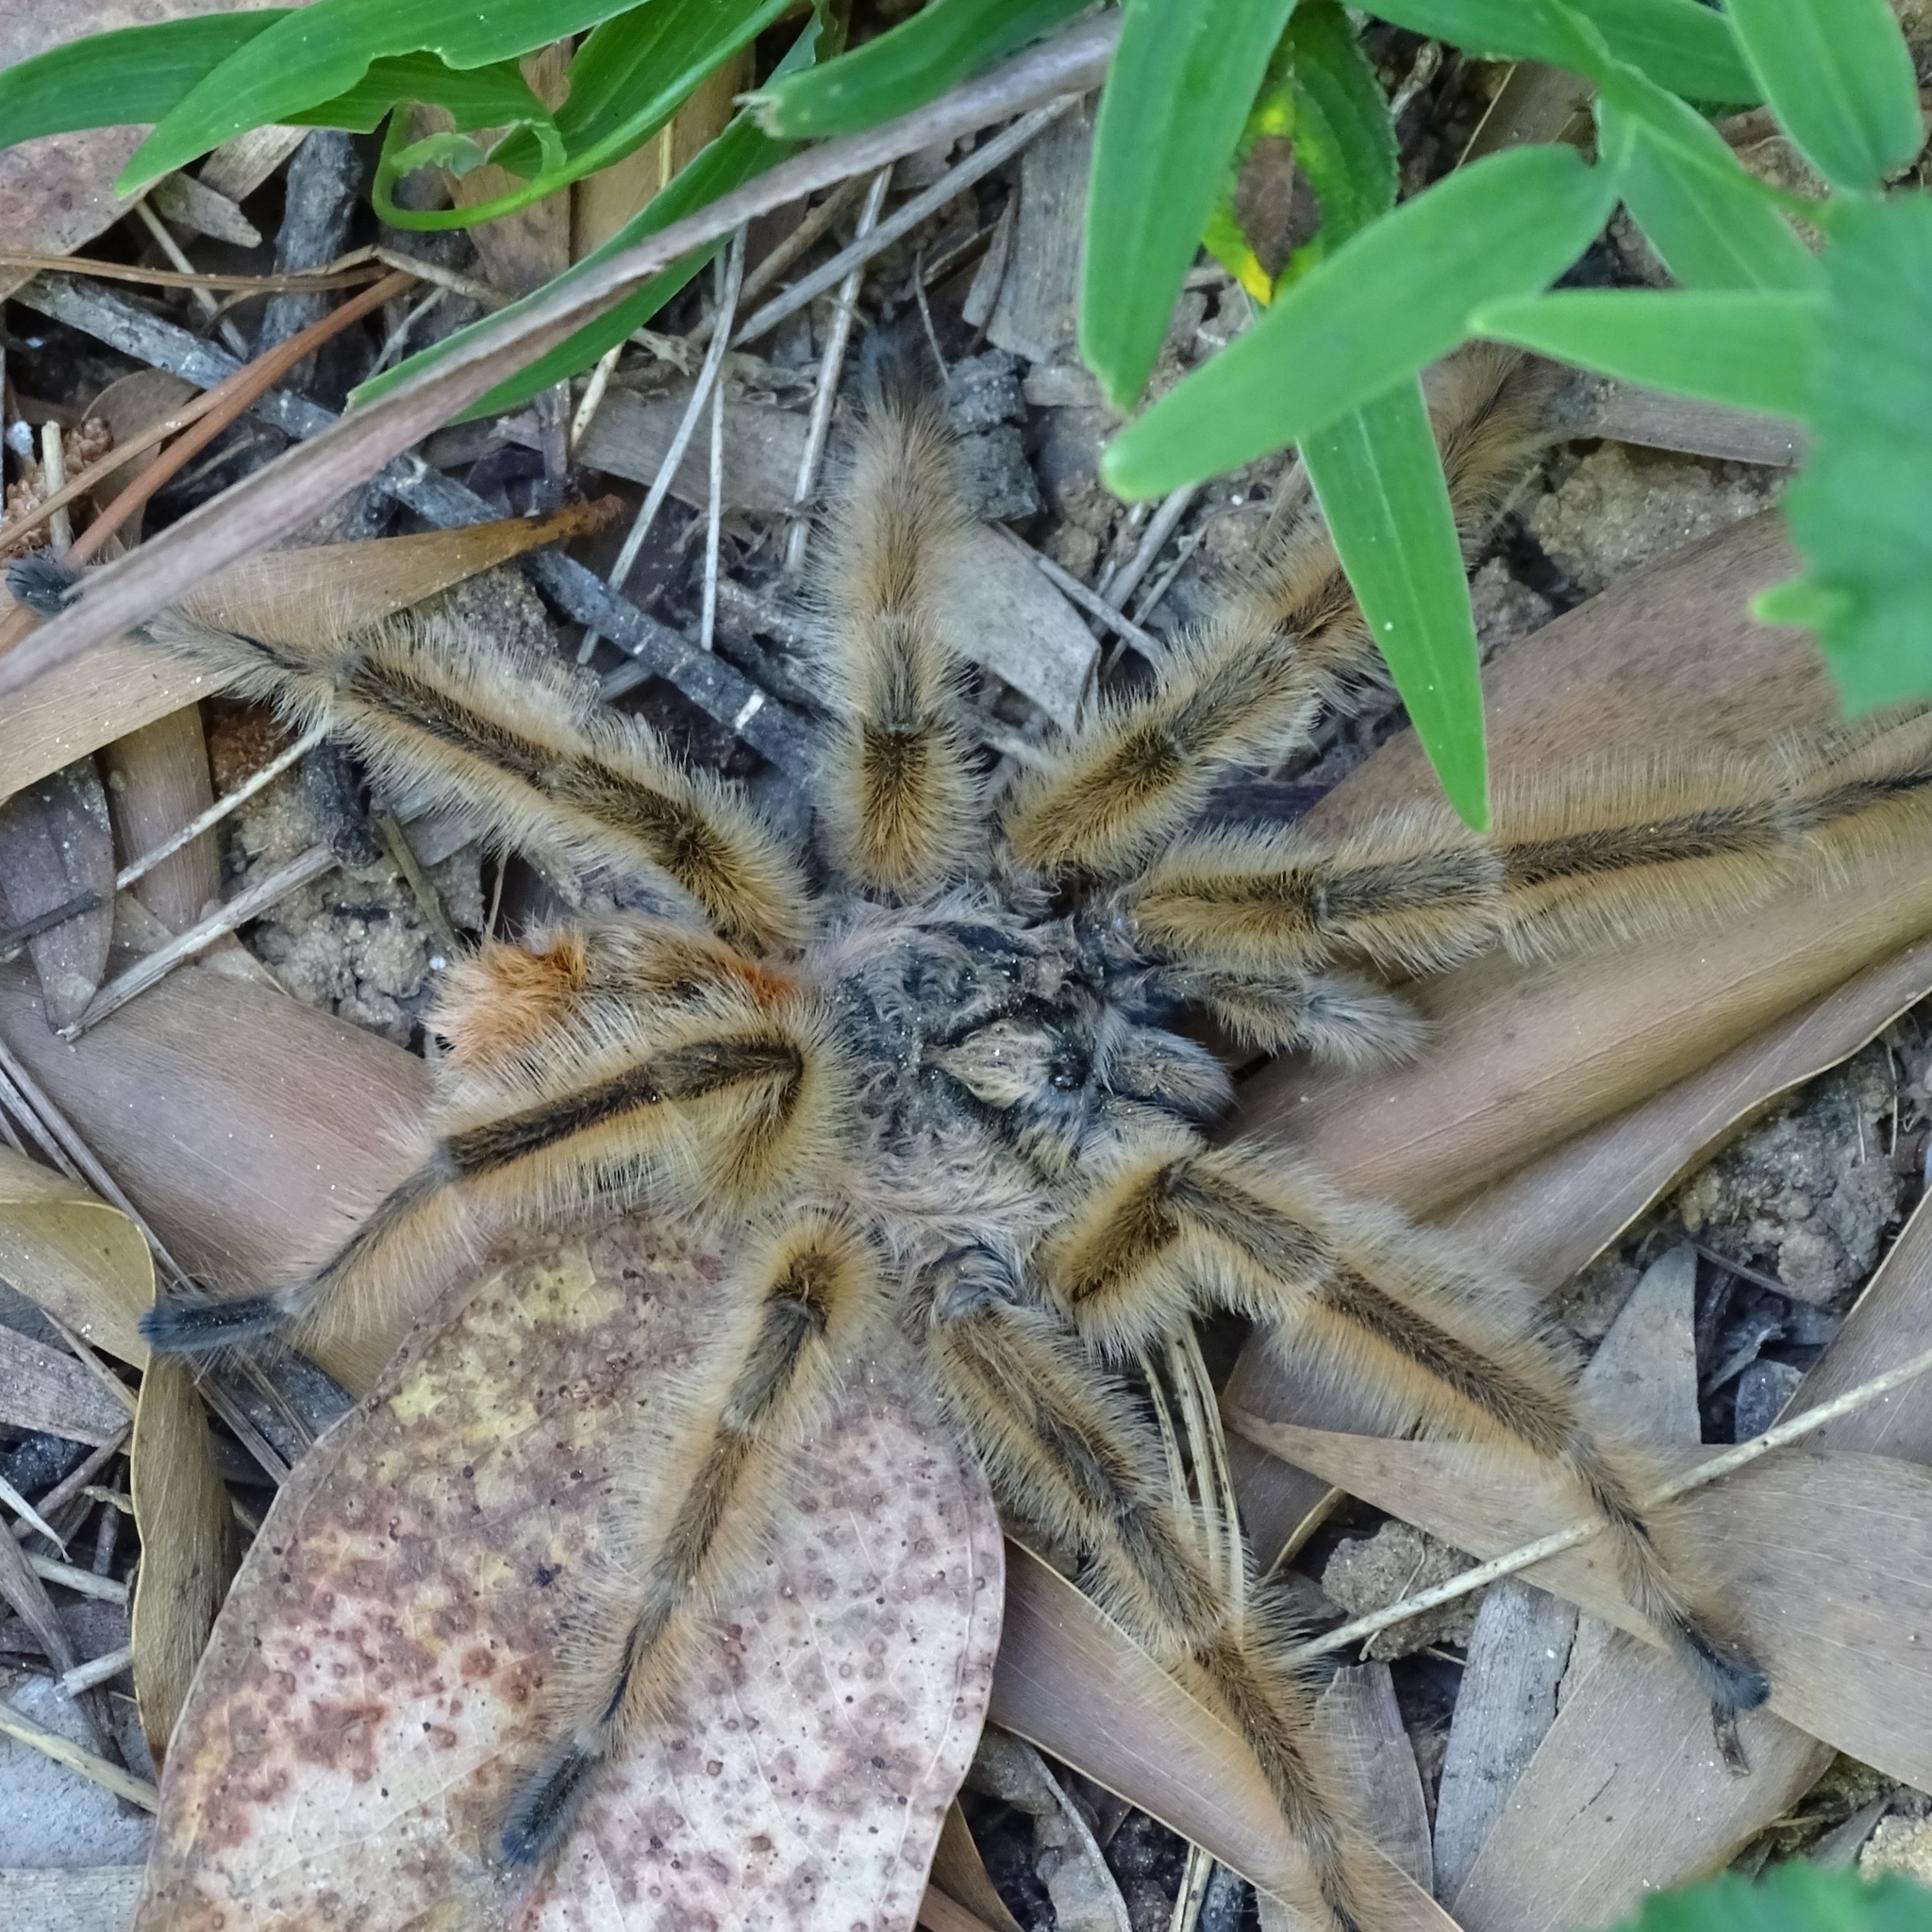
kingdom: Animalia
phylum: Arthropoda
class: Arachnida
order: Araneae
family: Theraphosidae
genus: Phrixotrichus
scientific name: Phrixotrichus vulpinus
